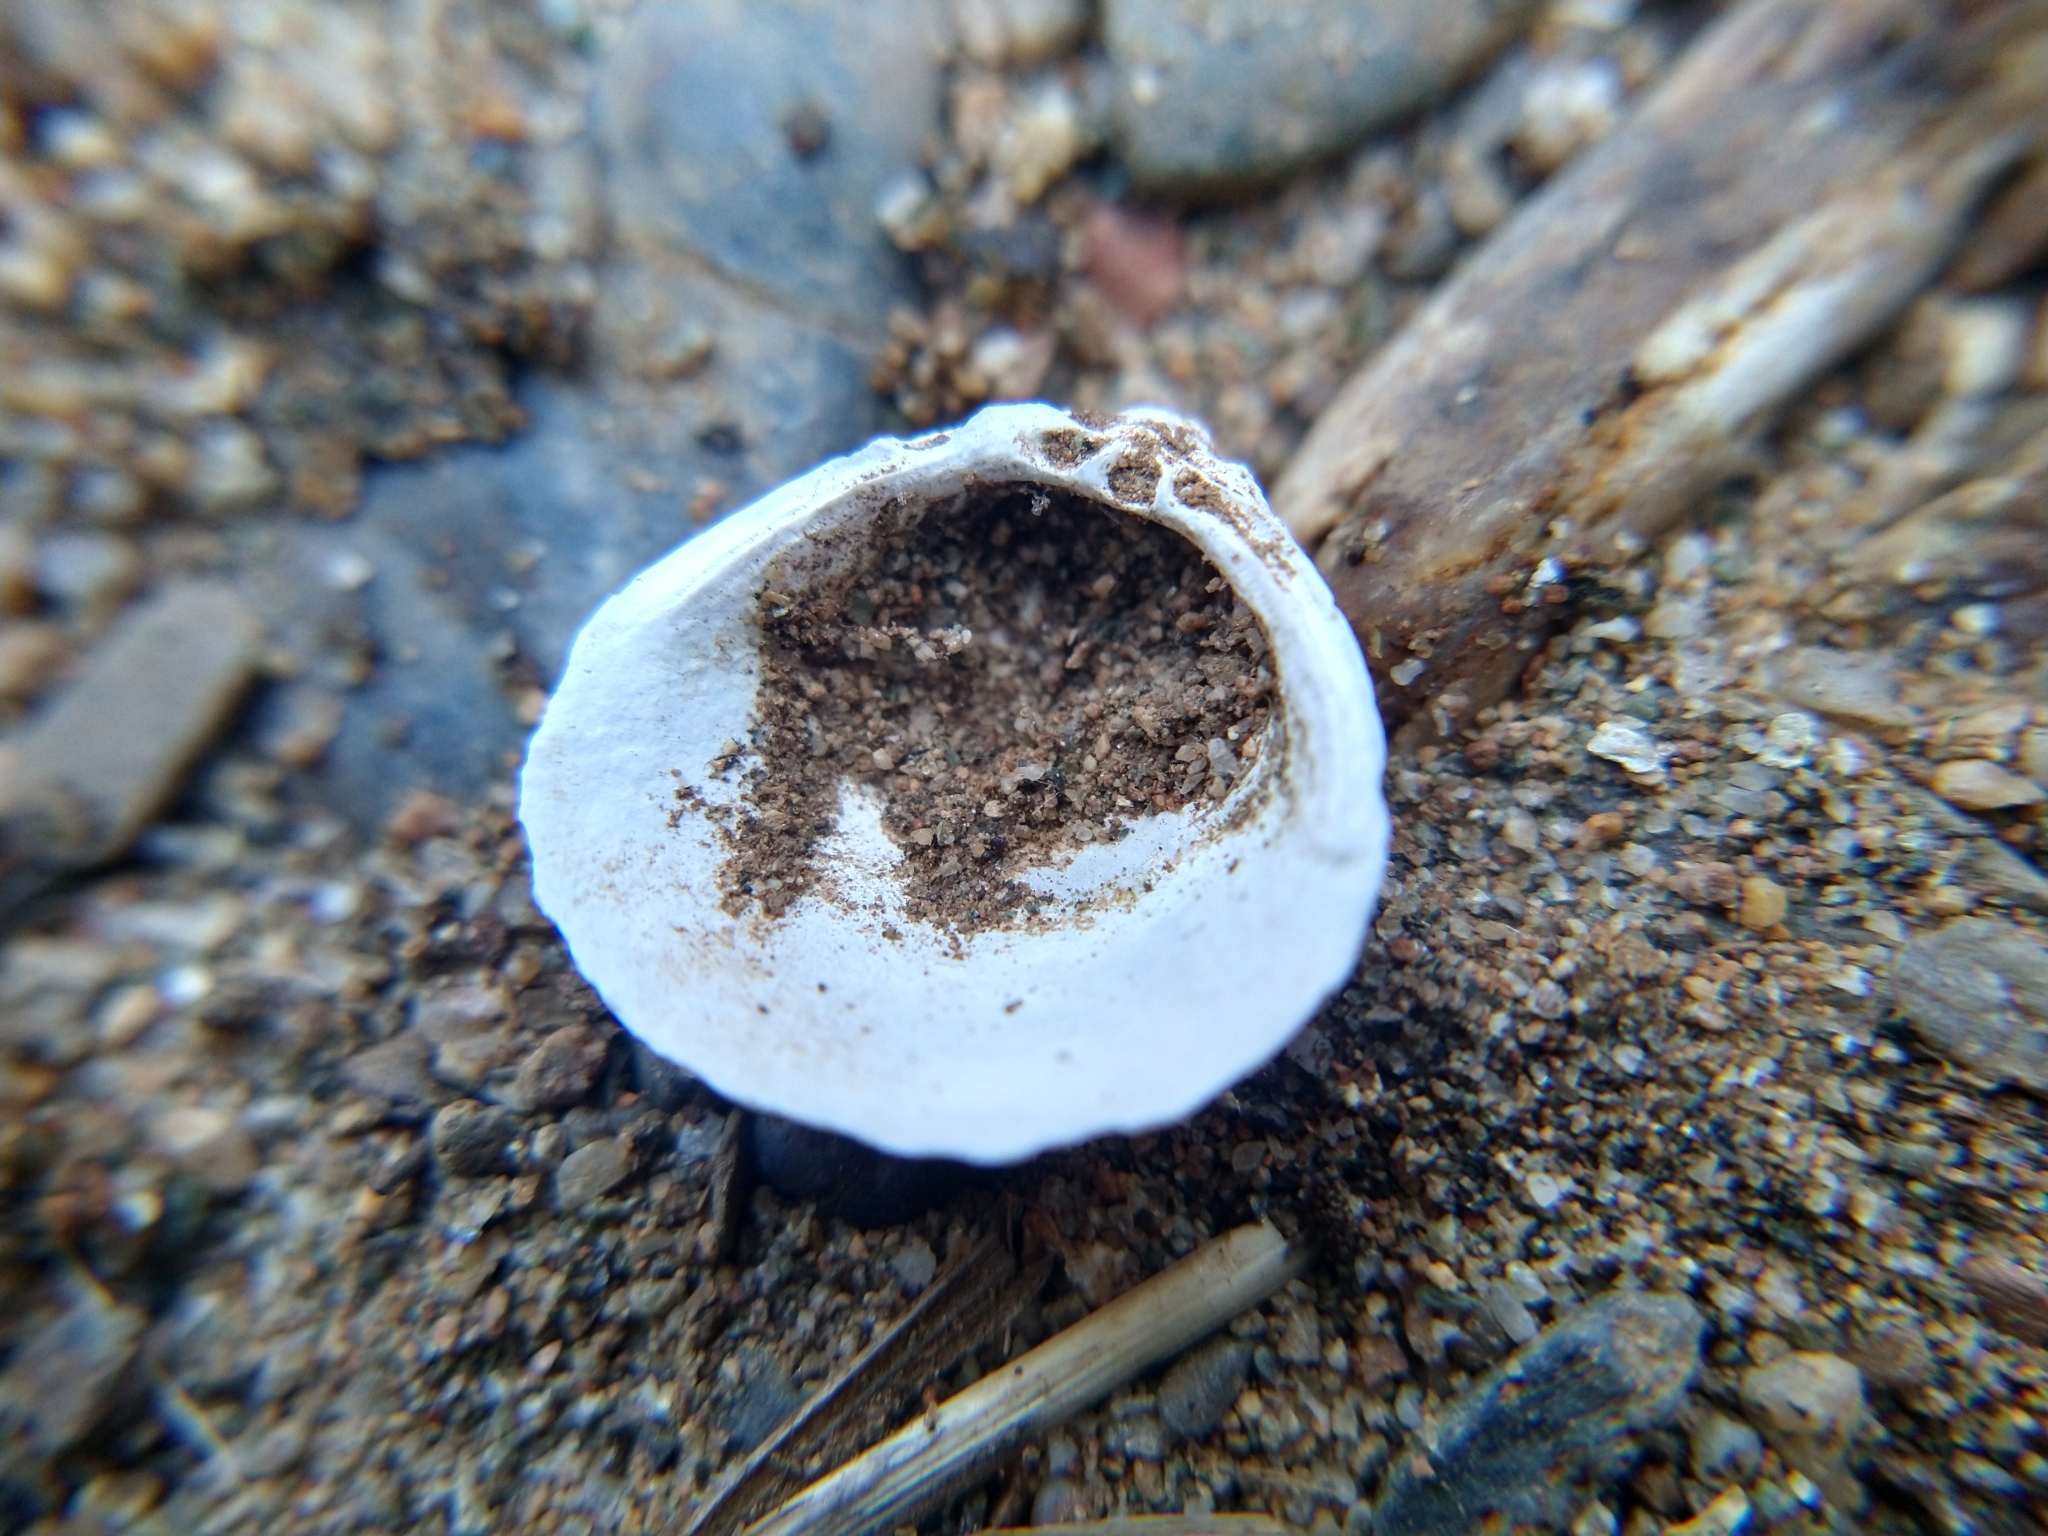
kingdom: Animalia
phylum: Mollusca
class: Bivalvia
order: Venerida
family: Cyrenidae
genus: Corbicula
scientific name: Corbicula fluminea
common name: Asian clam
